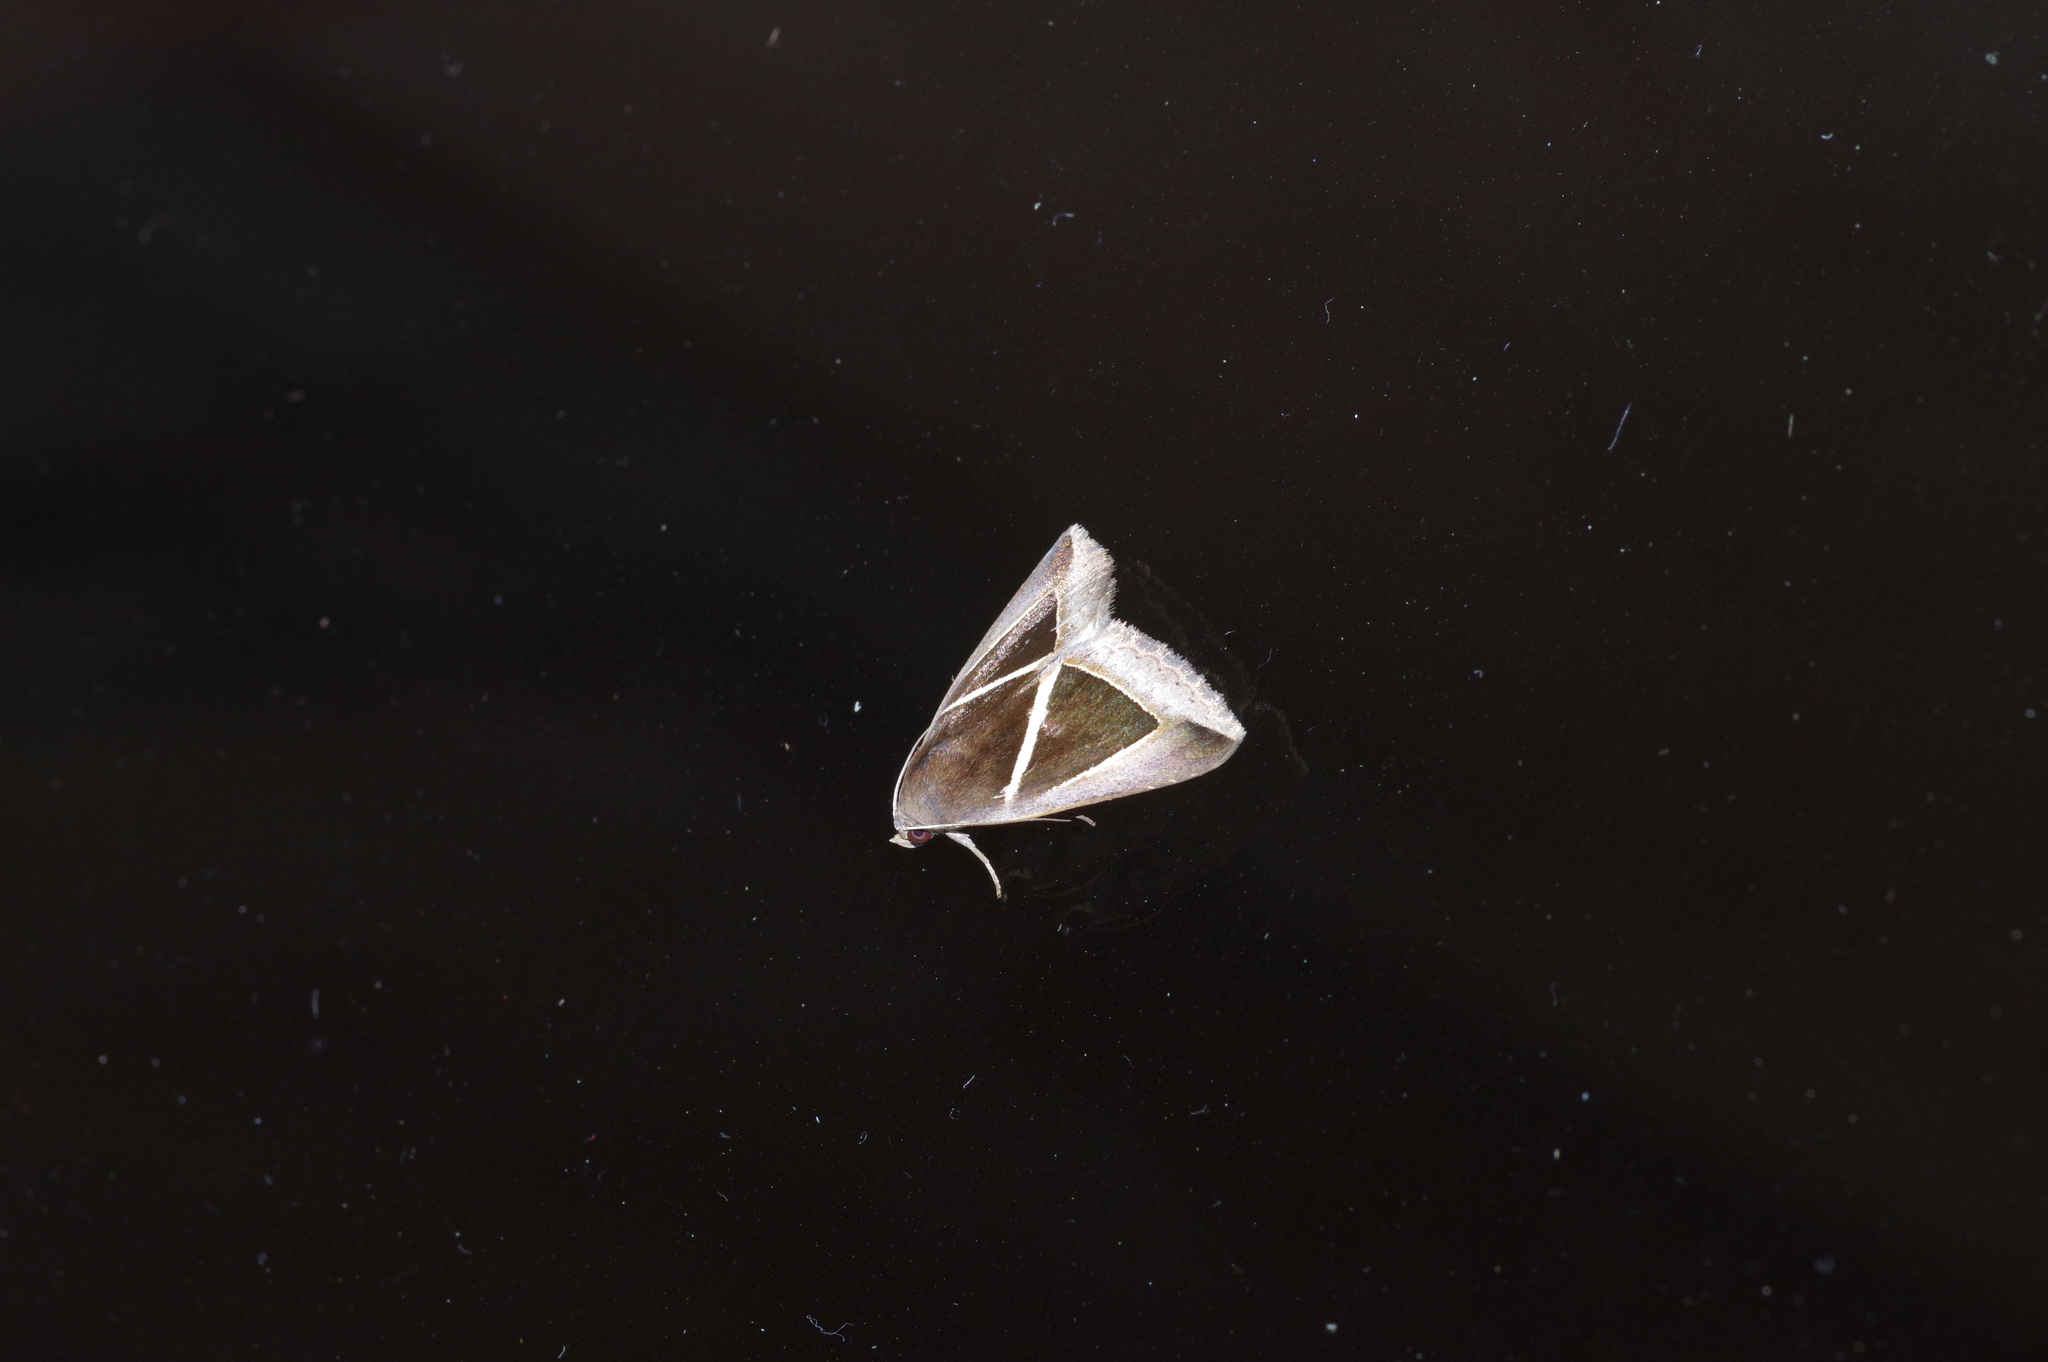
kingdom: Animalia
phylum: Arthropoda
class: Insecta
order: Lepidoptera
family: Erebidae
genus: Chalciope
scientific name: Chalciope mygdon
